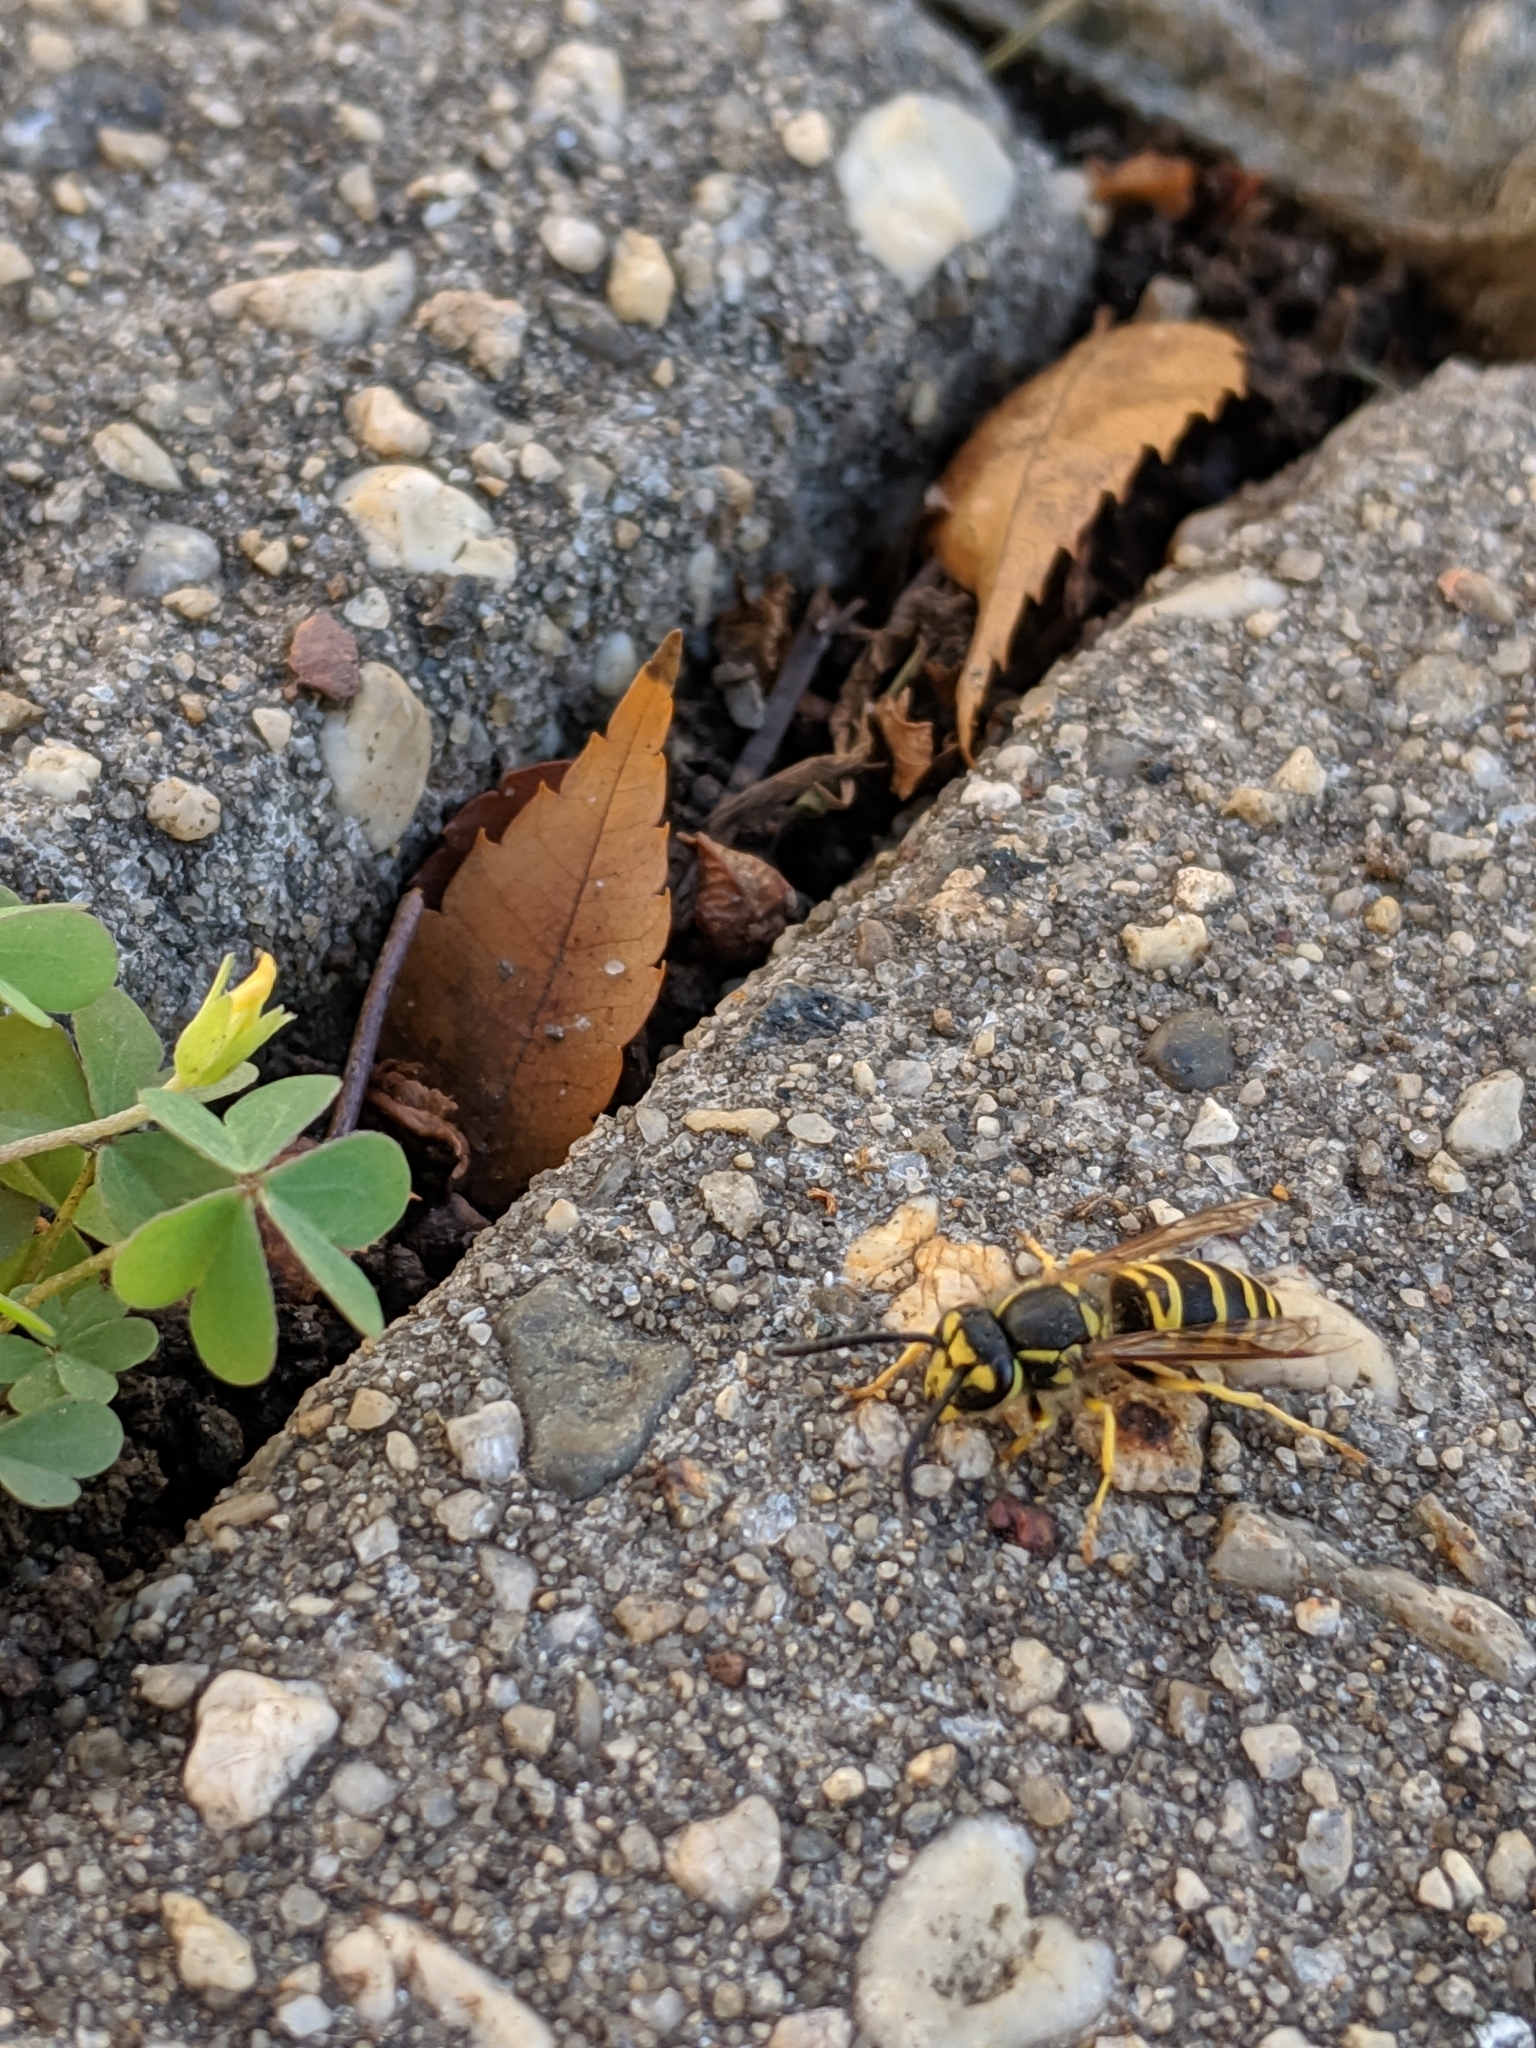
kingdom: Animalia
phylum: Arthropoda
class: Insecta
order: Hymenoptera
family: Vespidae
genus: Vespula
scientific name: Vespula maculifrons
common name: Eastern yellowjacket
